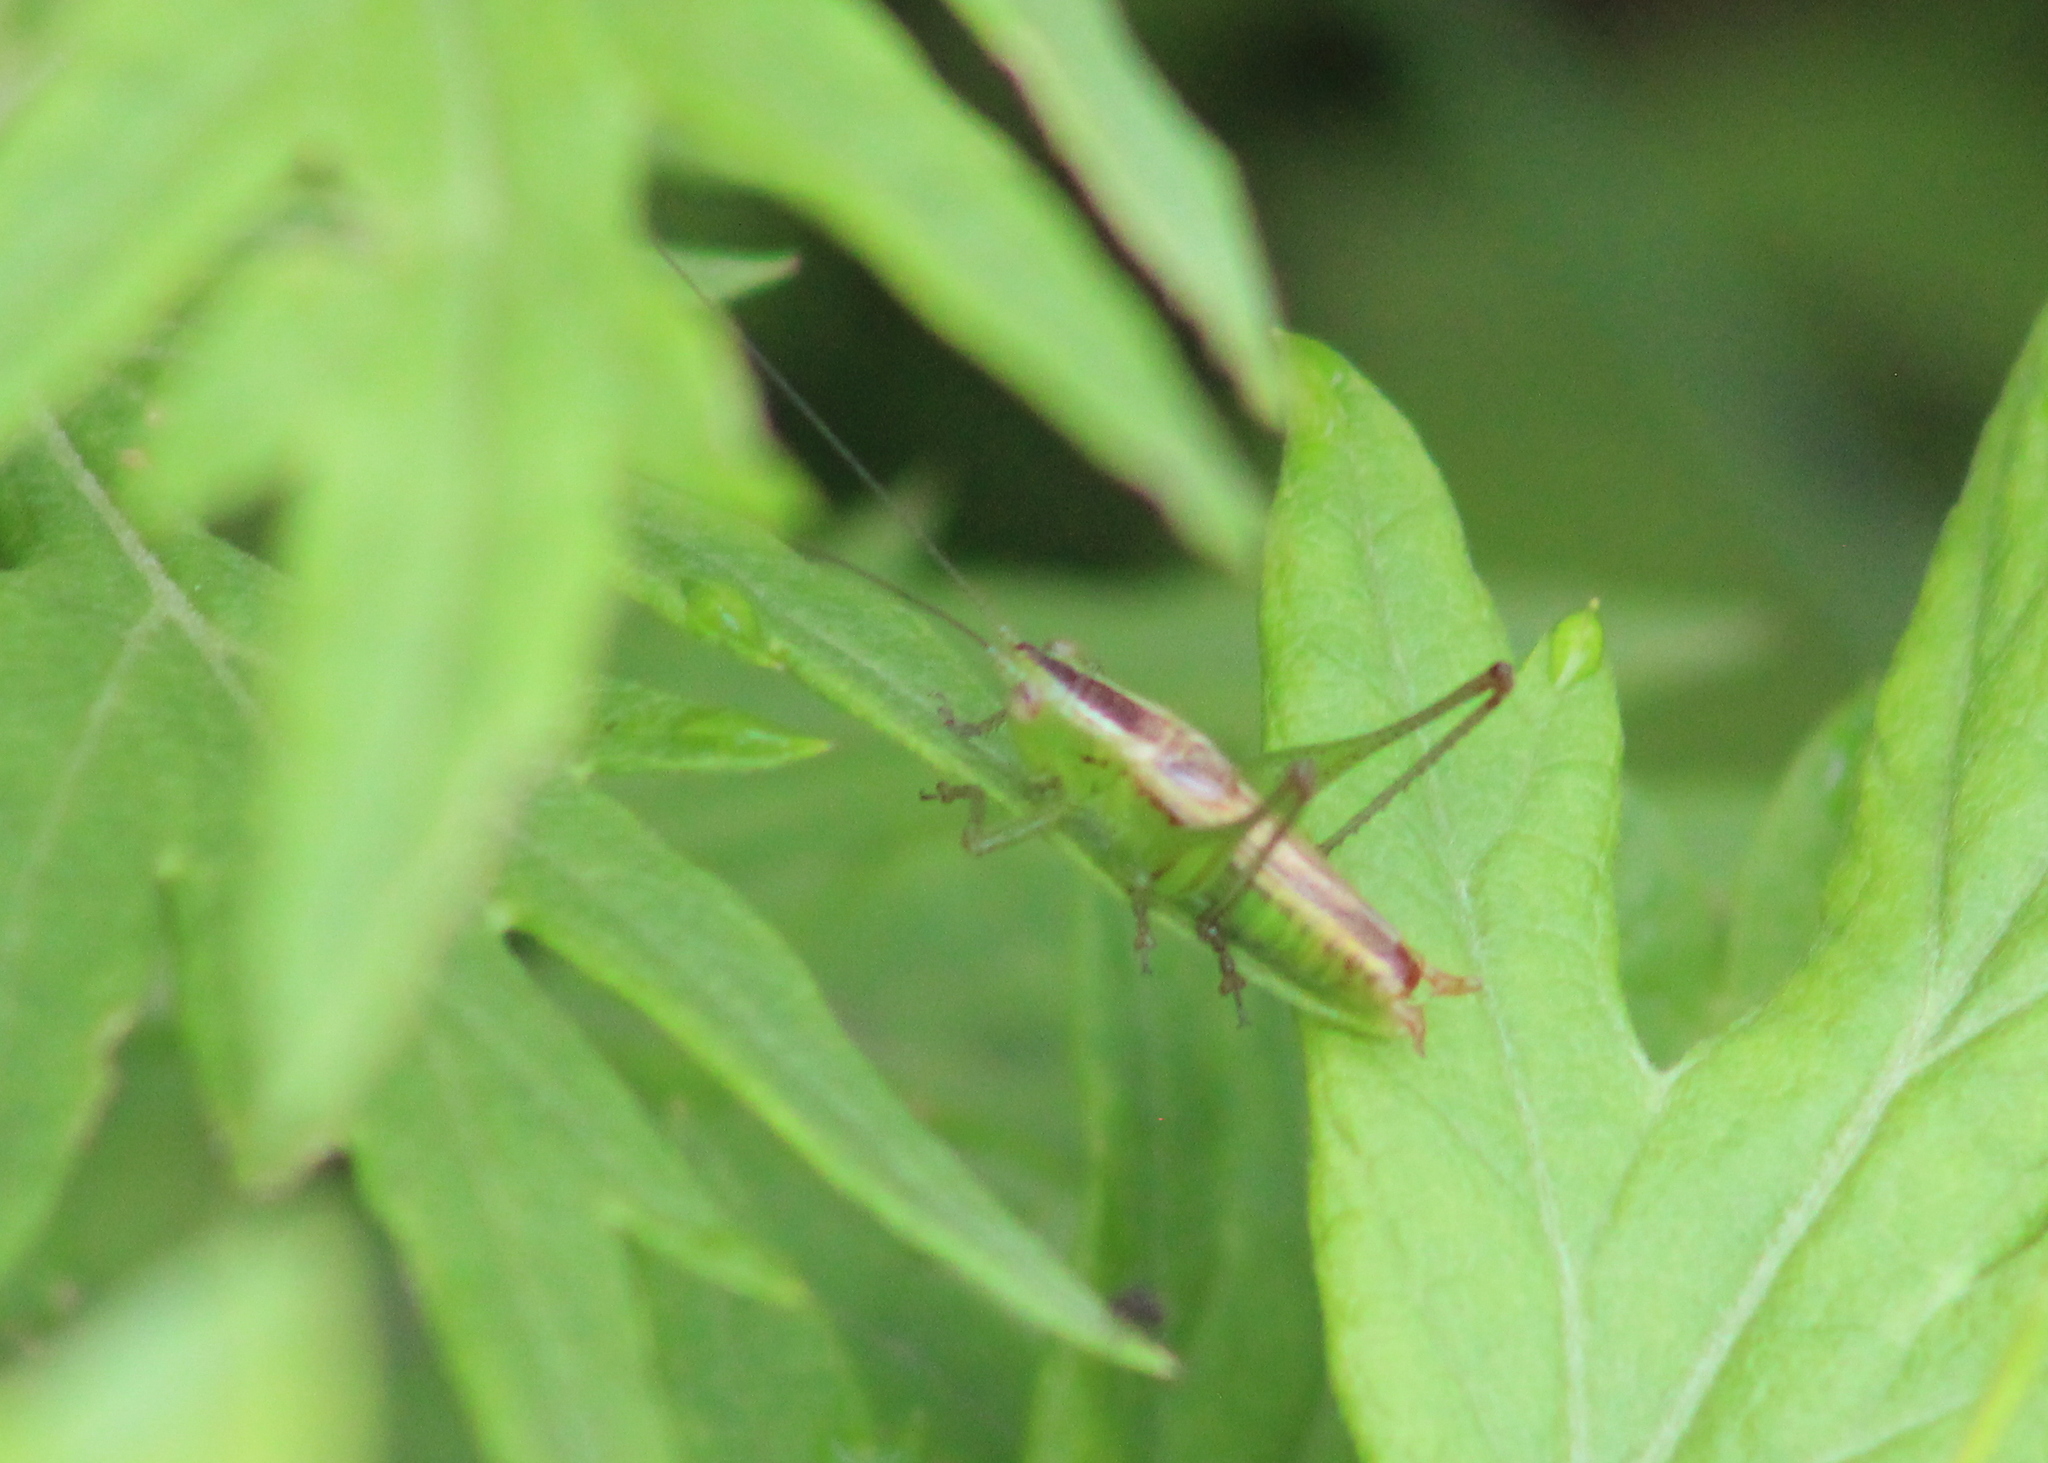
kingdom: Animalia
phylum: Arthropoda
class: Insecta
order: Orthoptera
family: Tettigoniidae
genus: Conocephalus
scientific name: Conocephalus brevipennis
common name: Short-winged meadow katydid
